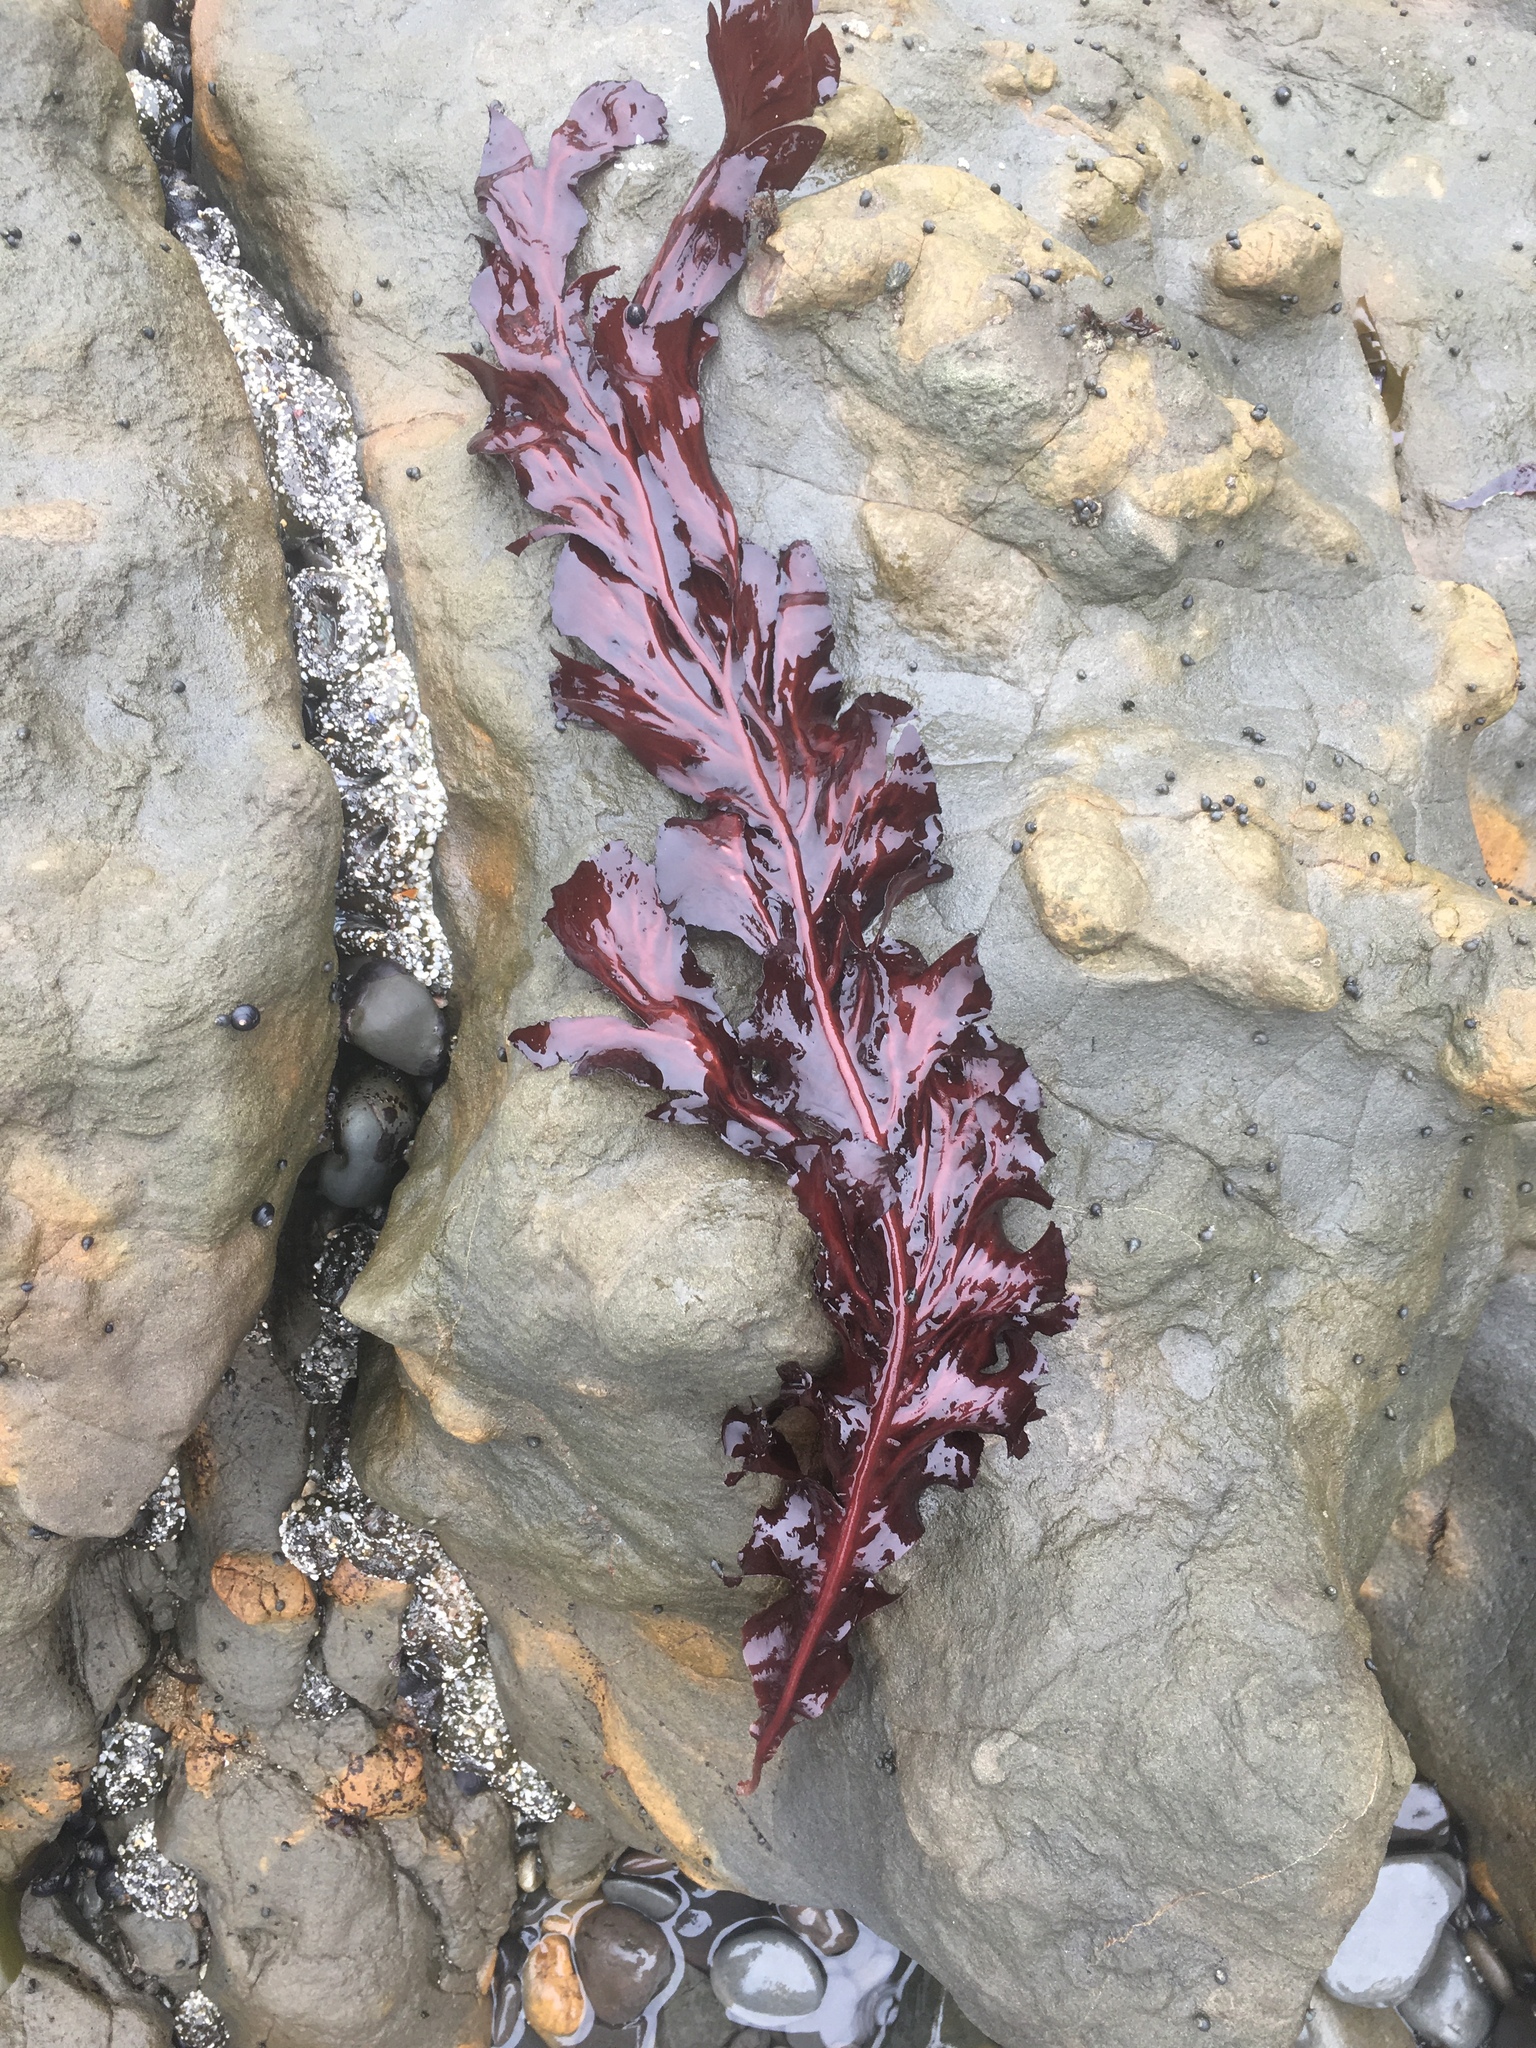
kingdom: Plantae
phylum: Rhodophyta
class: Florideophyceae
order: Gigartinales
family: Kallymeniaceae
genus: Erythrophyllum
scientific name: Erythrophyllum delesserioides
